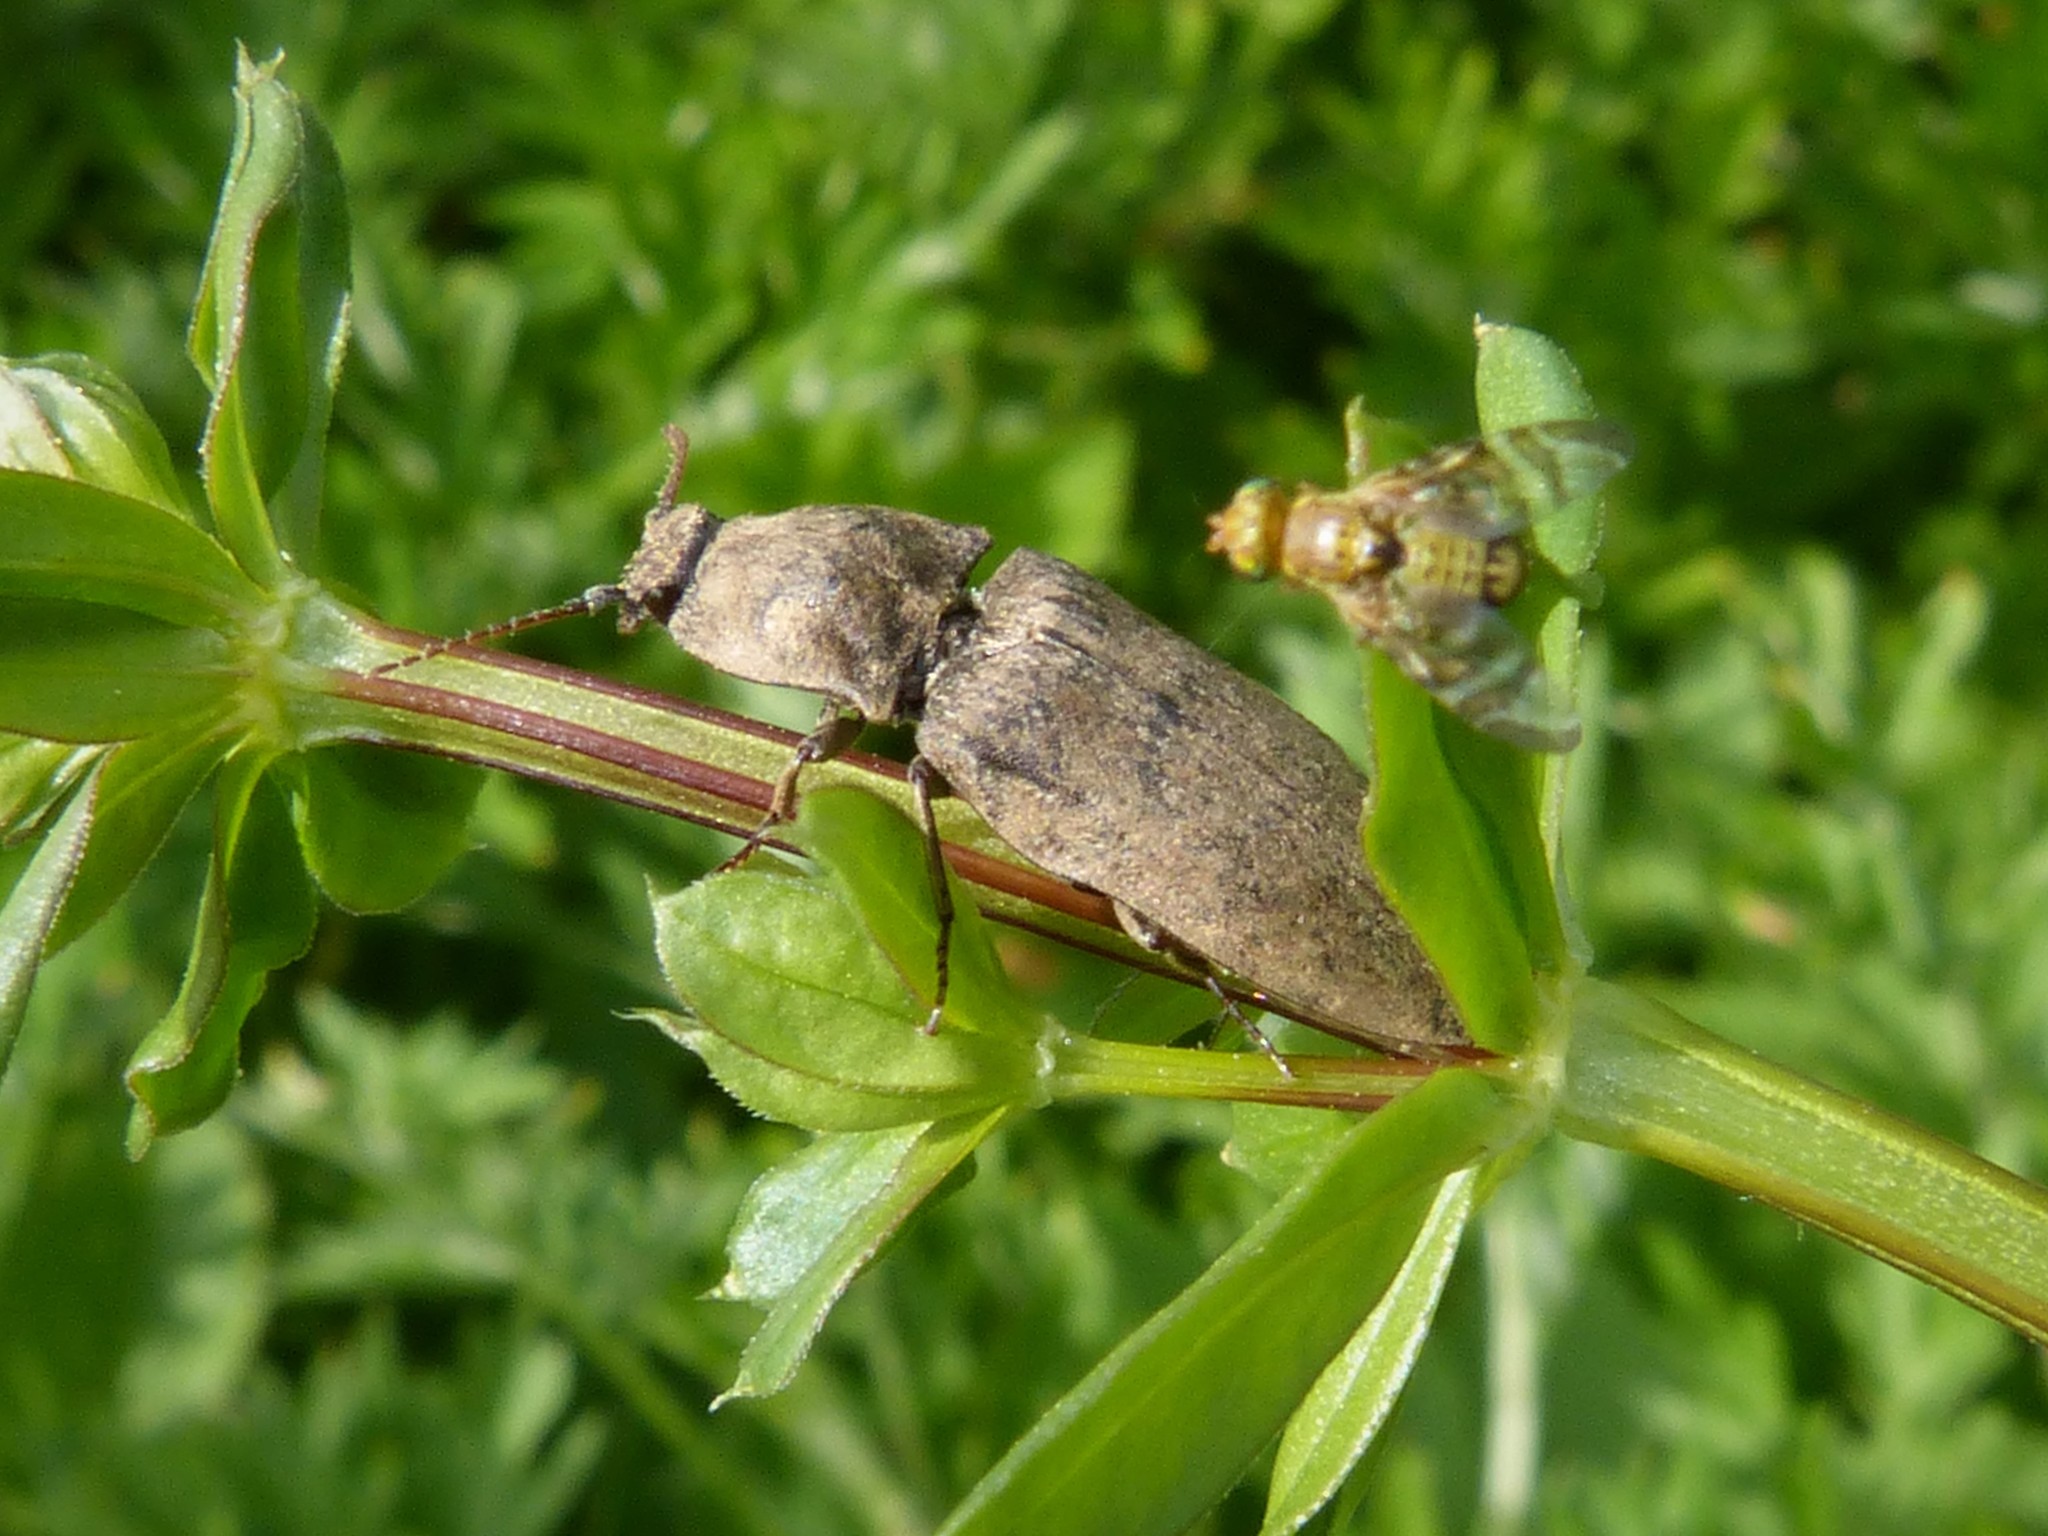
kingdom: Animalia
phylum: Arthropoda
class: Insecta
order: Coleoptera
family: Elateridae
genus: Agrypnus
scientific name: Agrypnus murinus
